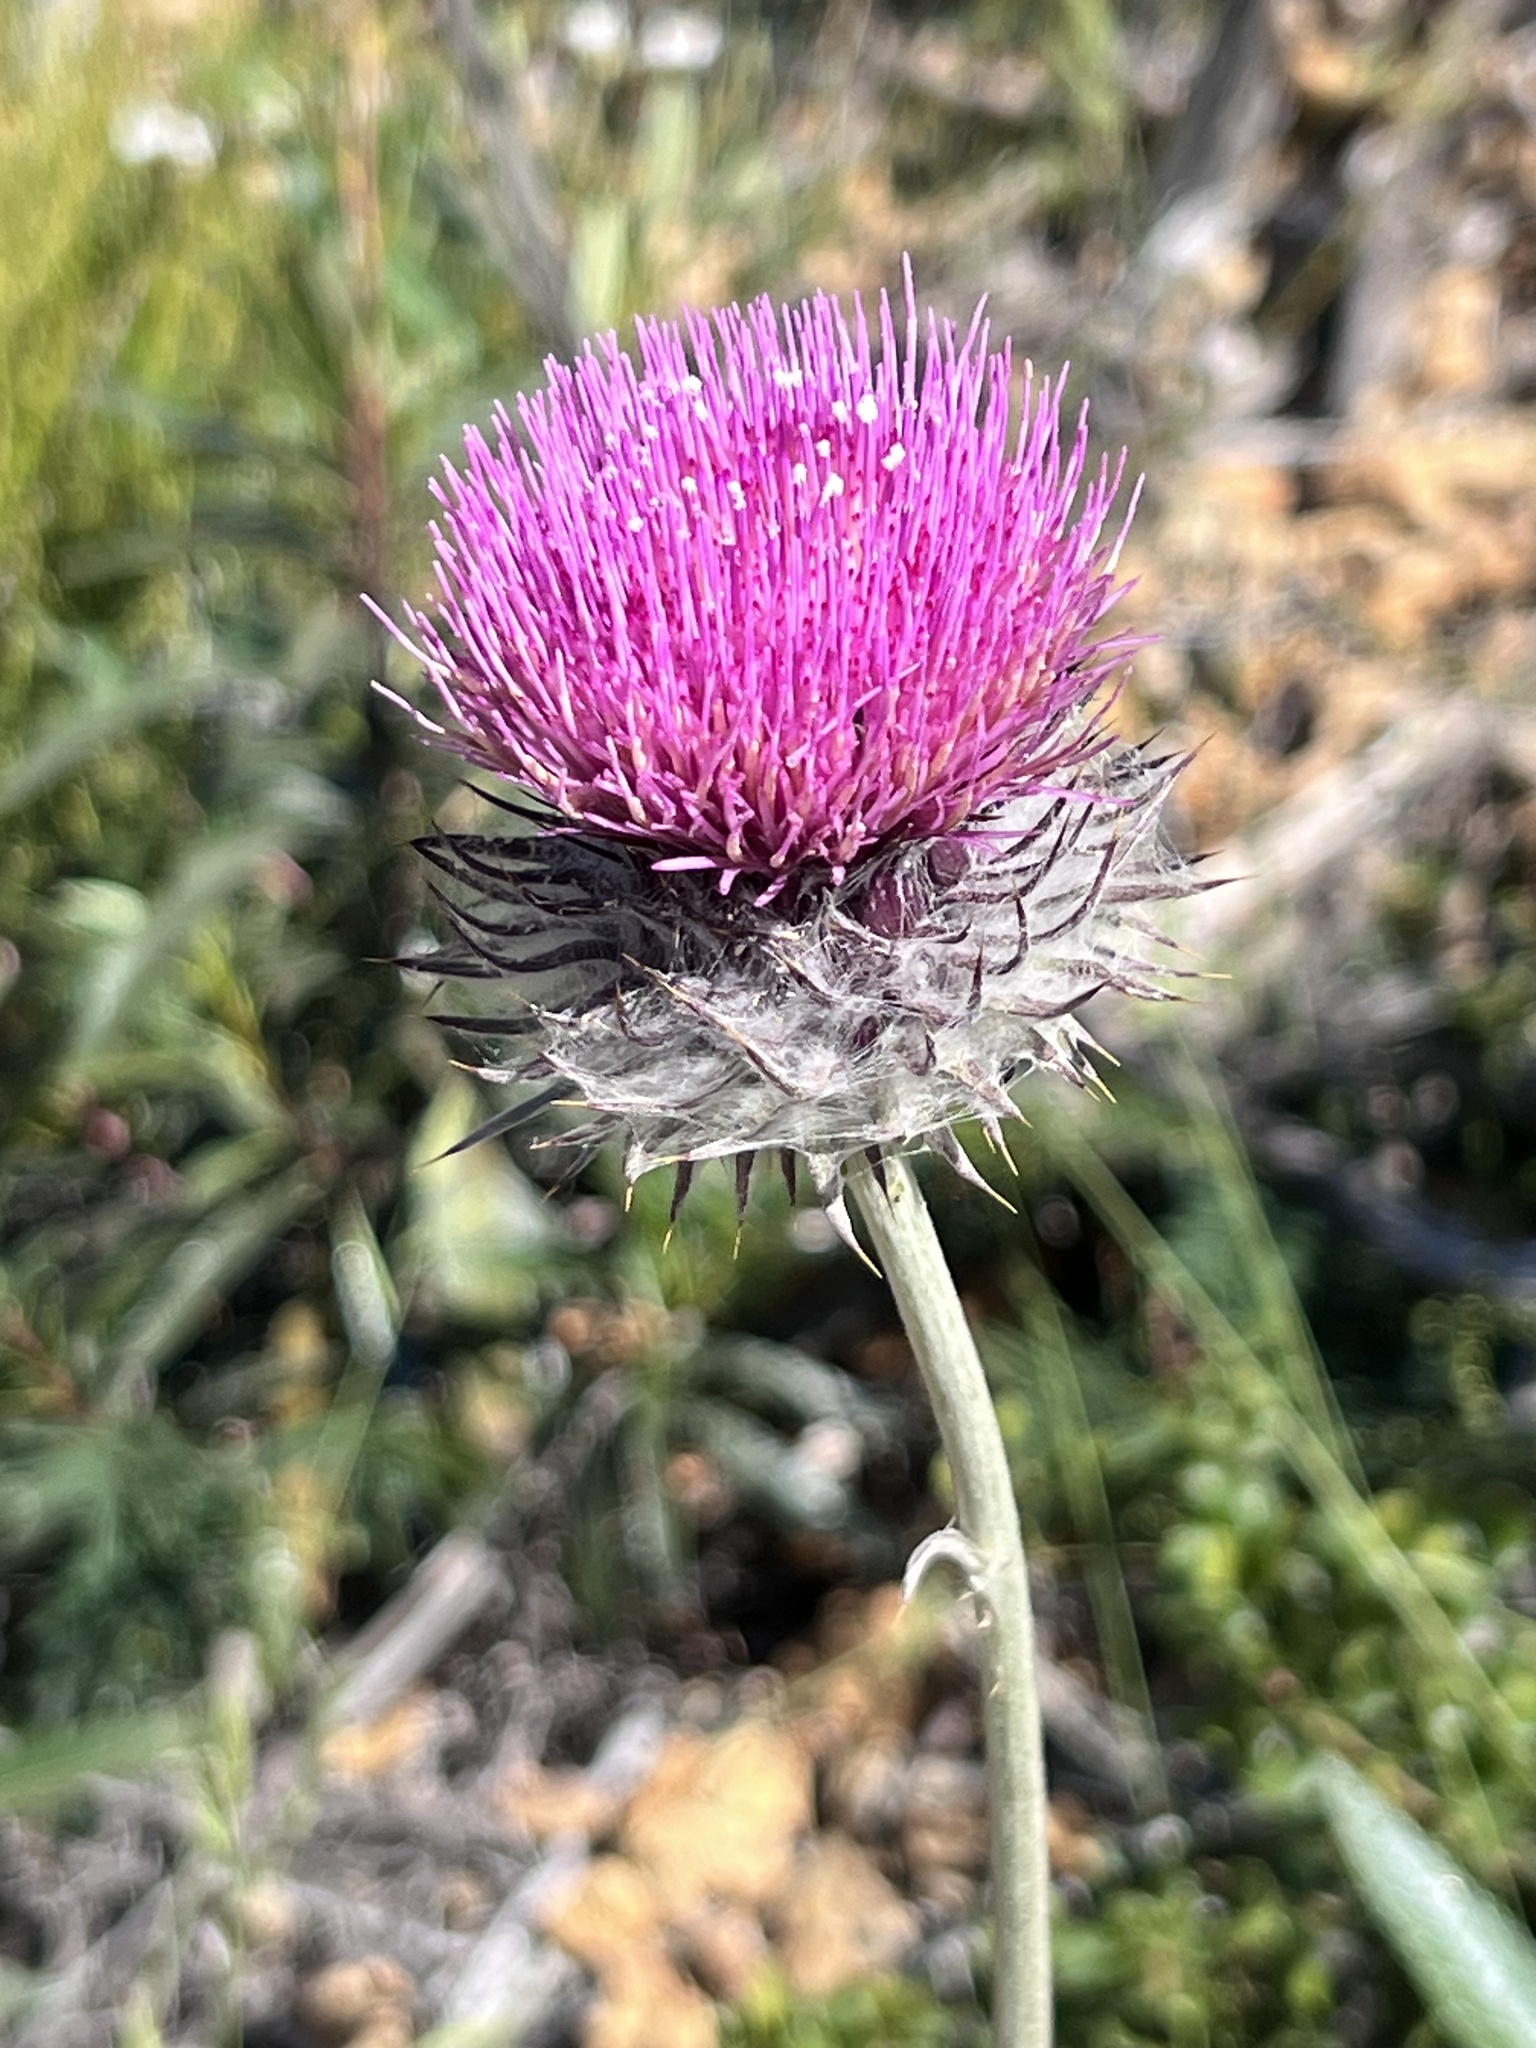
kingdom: Plantae
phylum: Tracheophyta
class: Magnoliopsida
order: Asterales
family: Asteraceae
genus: Cirsium
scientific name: Cirsium occidentale
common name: Western thistle
